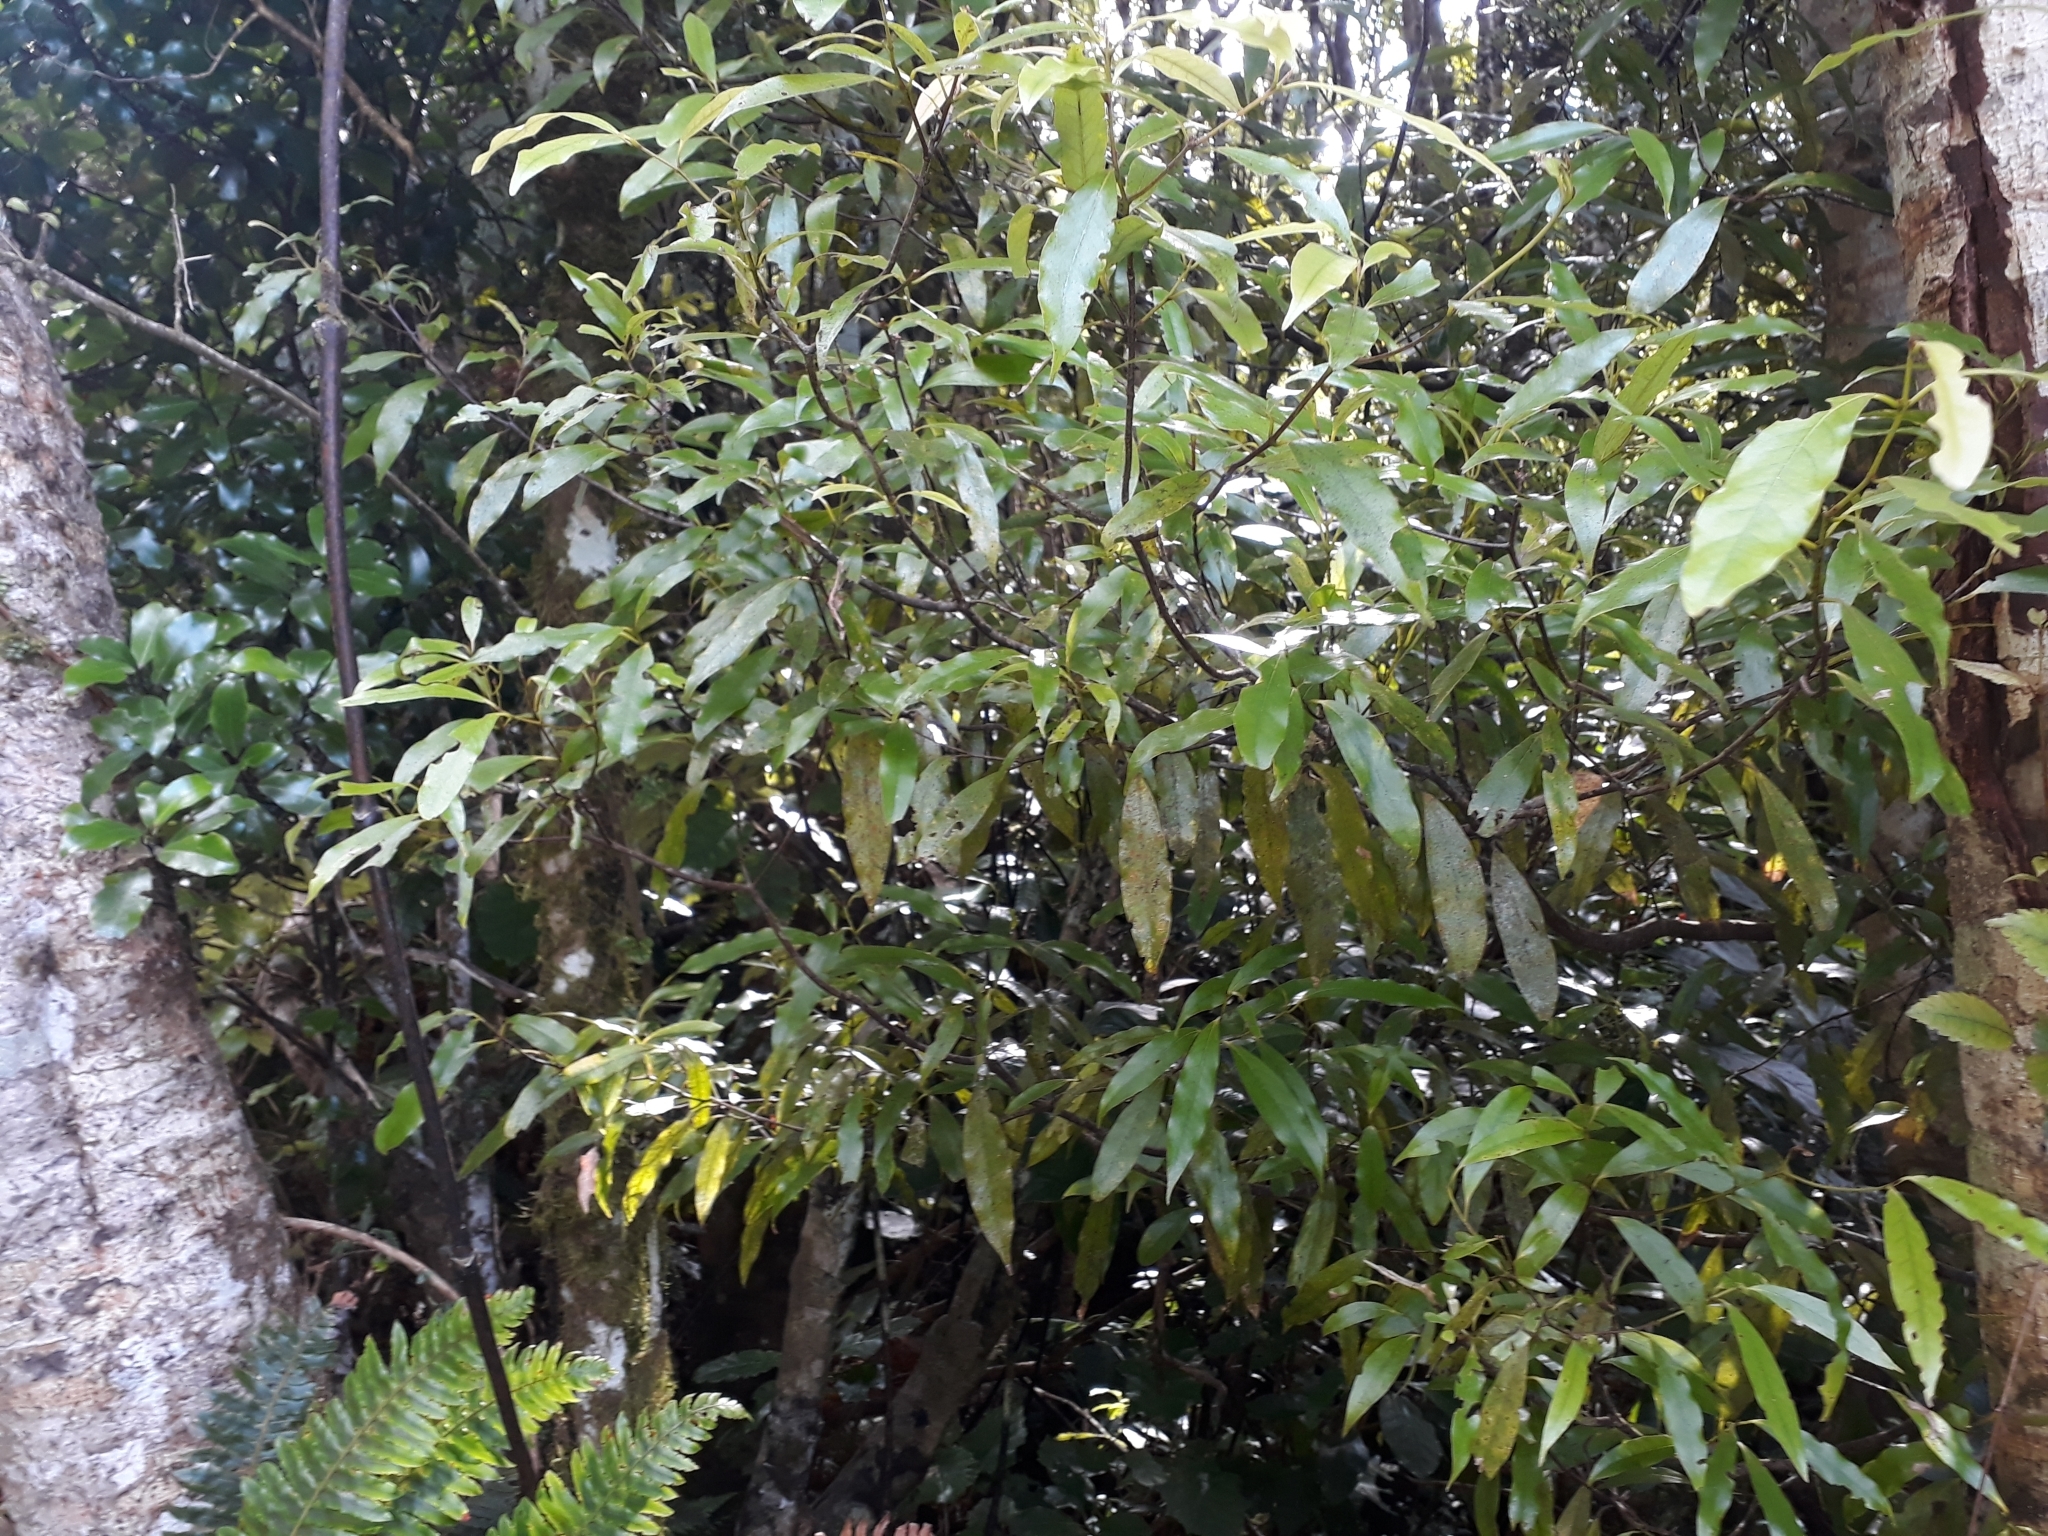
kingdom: Plantae
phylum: Tracheophyta
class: Magnoliopsida
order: Laurales
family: Lauraceae
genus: Beilschmiedia
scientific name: Beilschmiedia tawa
